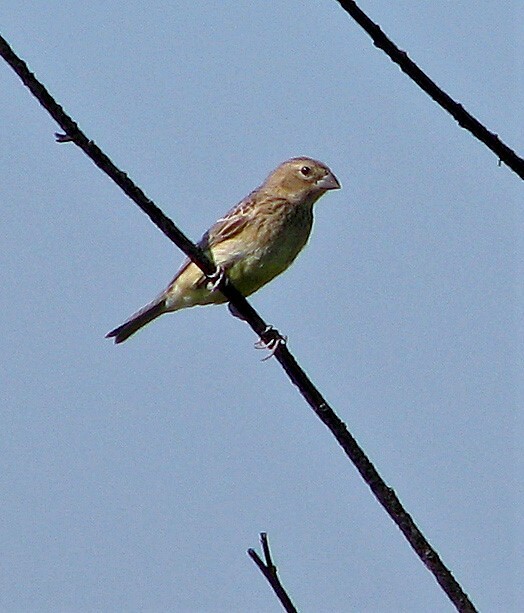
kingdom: Animalia
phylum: Chordata
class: Aves
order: Passeriformes
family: Thraupidae
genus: Sicalis
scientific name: Sicalis luteola
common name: Grassland yellow-finch
